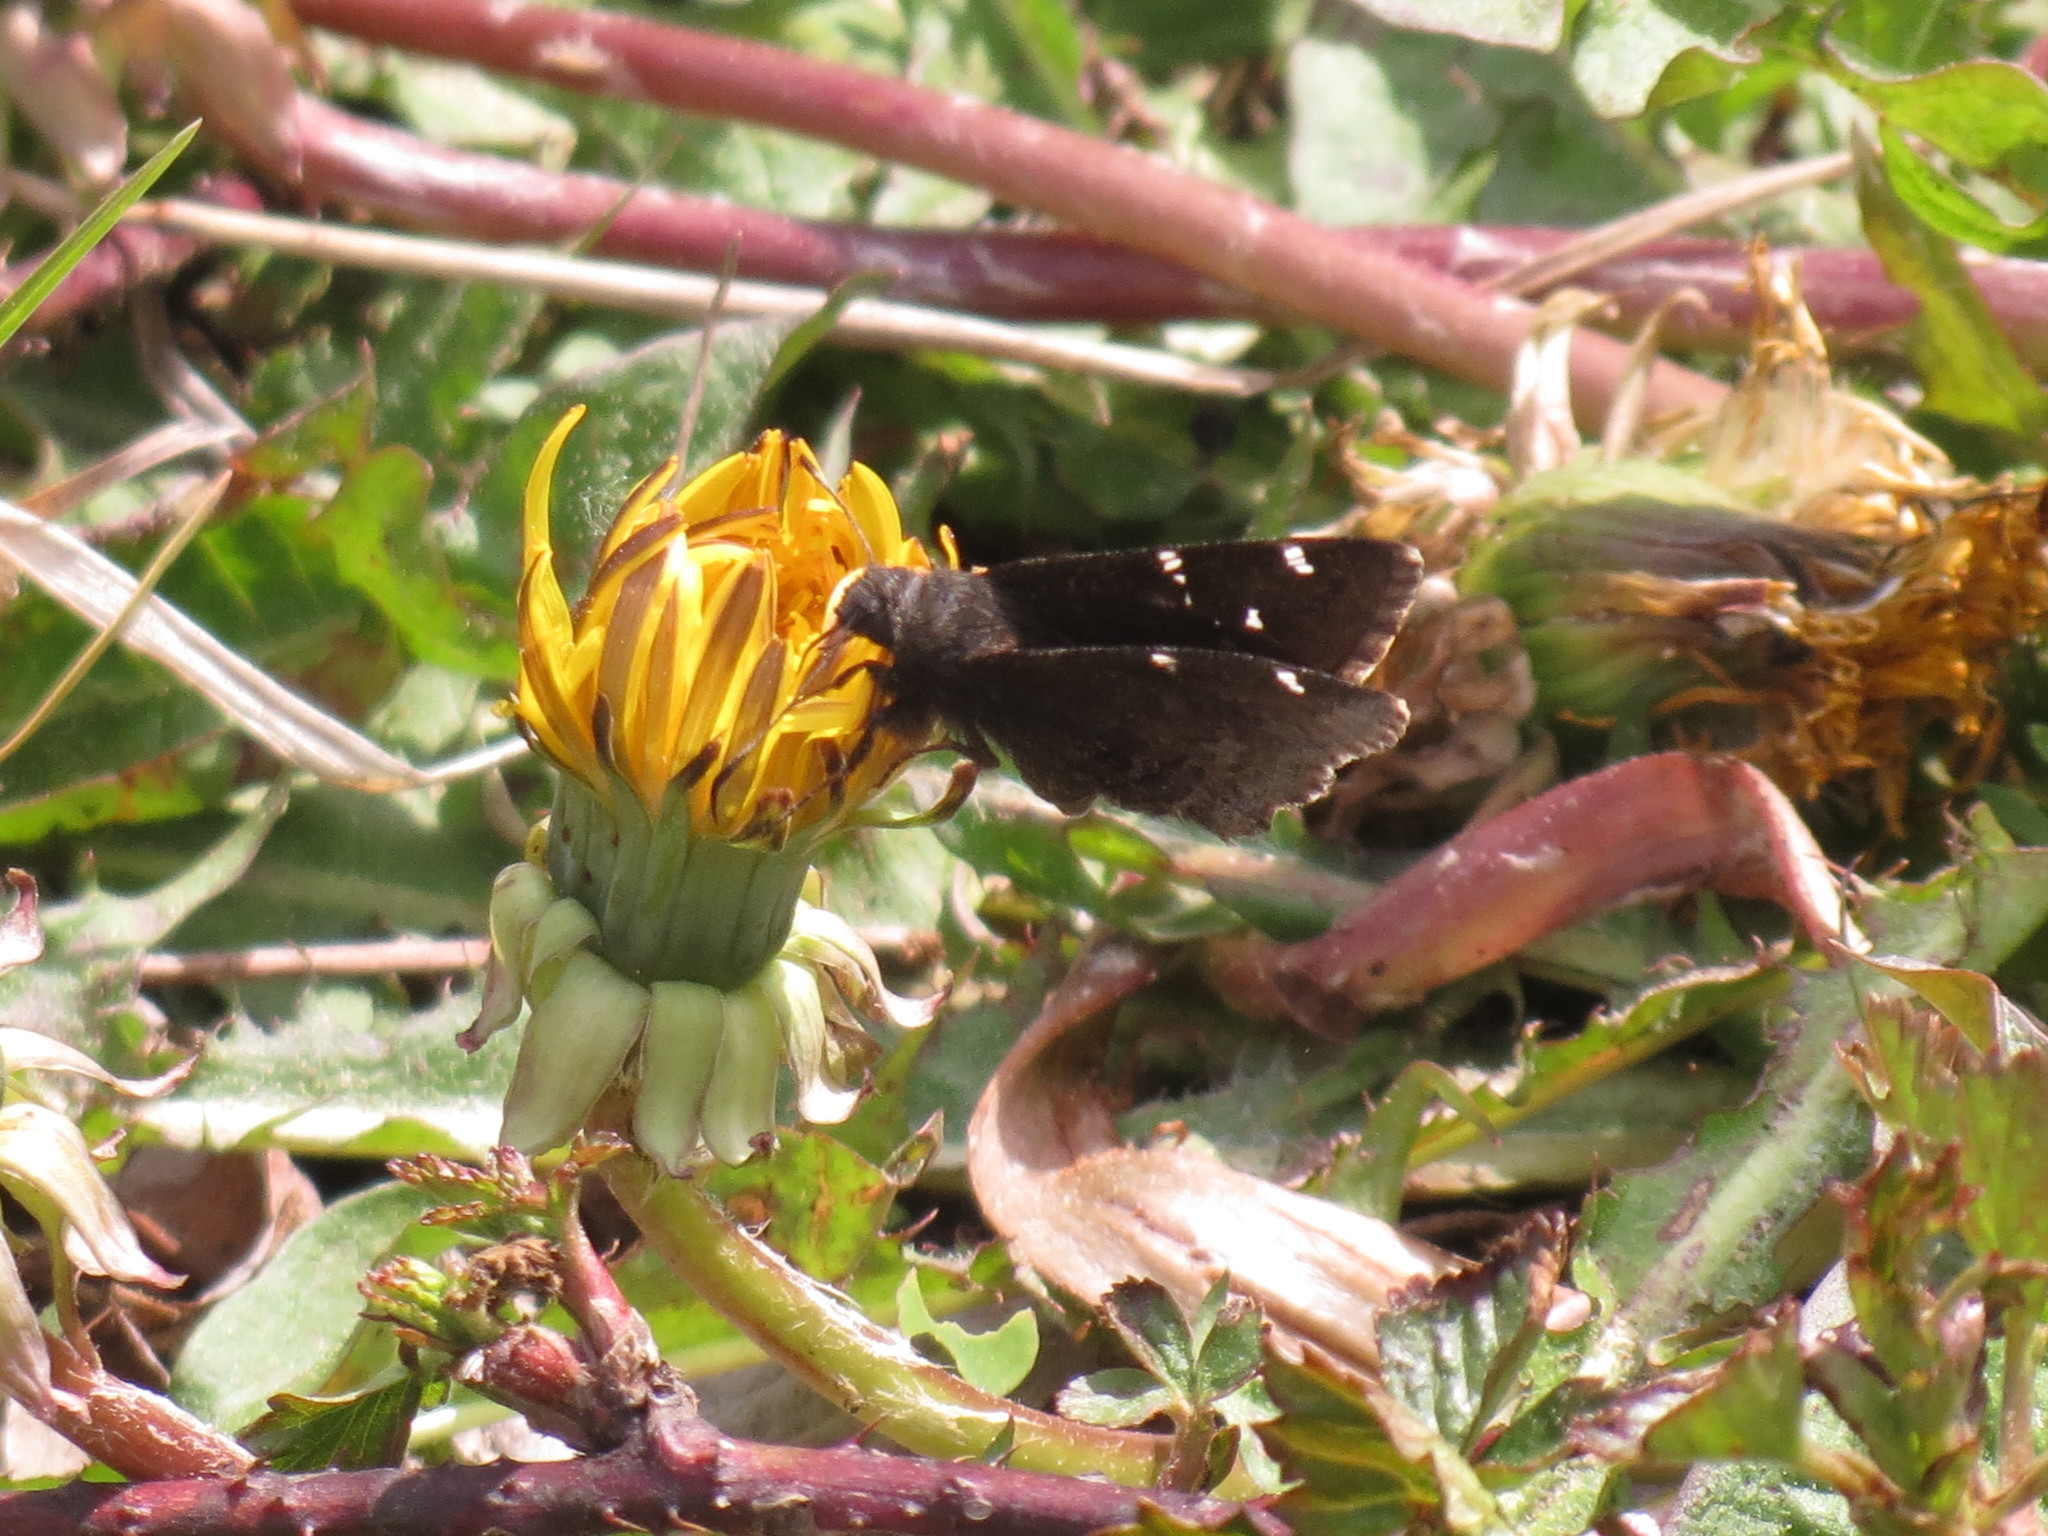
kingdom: Animalia
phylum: Arthropoda
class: Insecta
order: Lepidoptera
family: Hesperiidae
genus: Thorybes
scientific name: Thorybes pylades
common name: Northern cloudywing
